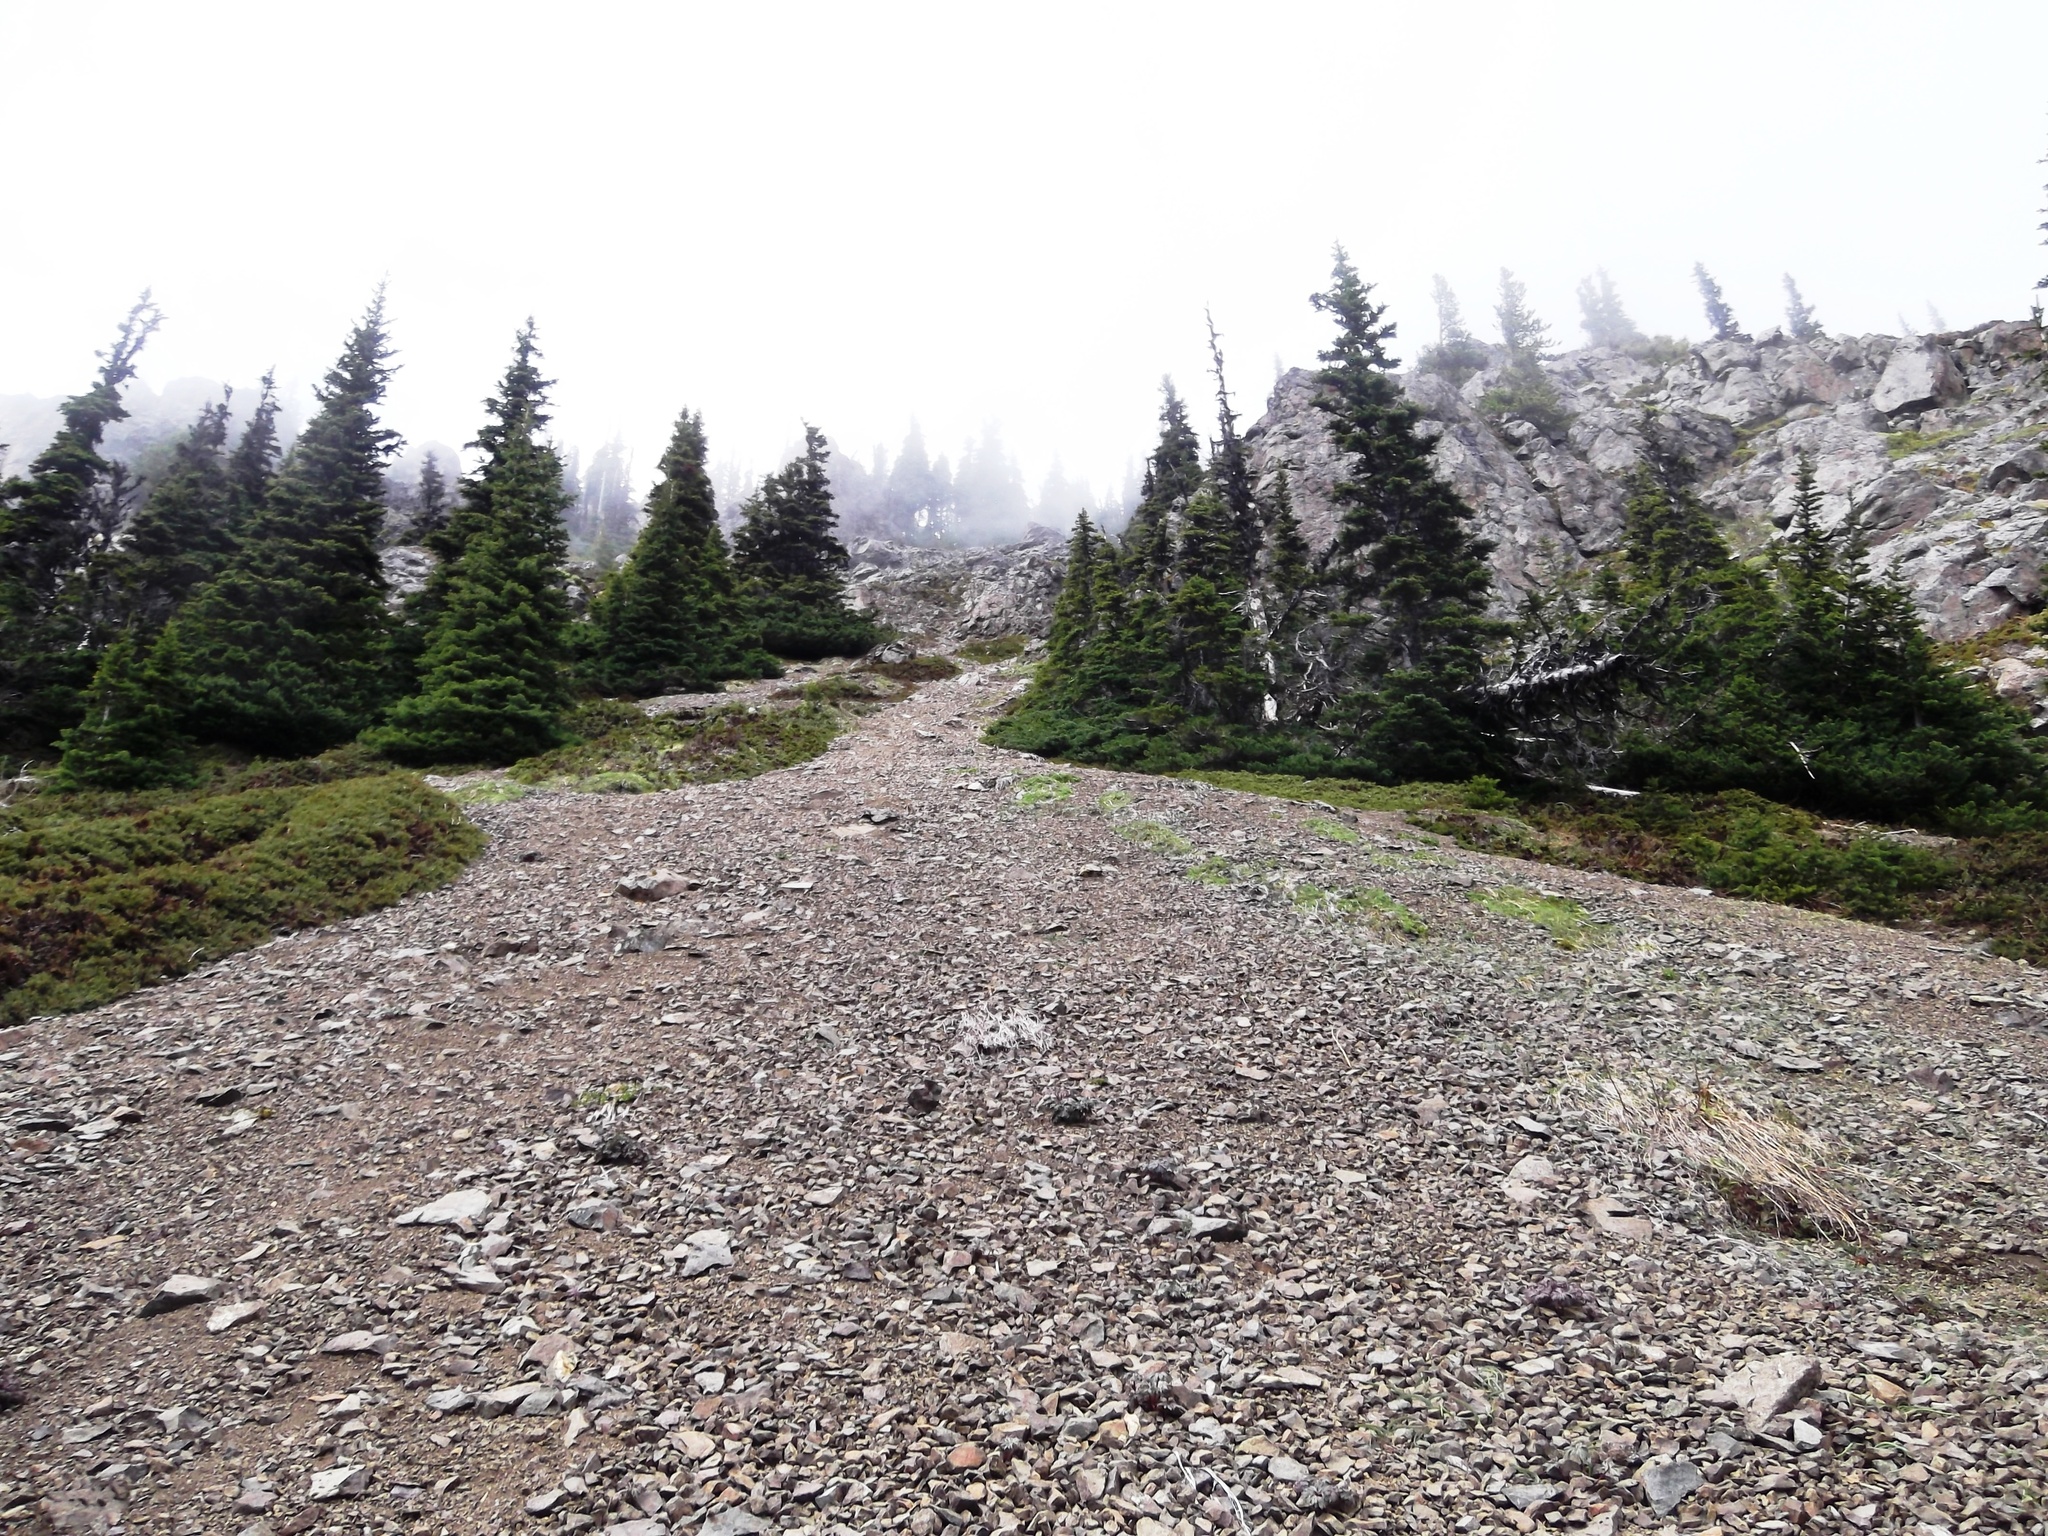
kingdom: Plantae
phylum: Tracheophyta
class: Magnoliopsida
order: Ranunculales
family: Ranunculaceae
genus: Delphinium
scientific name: Delphinium glareosum
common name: Olympic mountain larkspur
